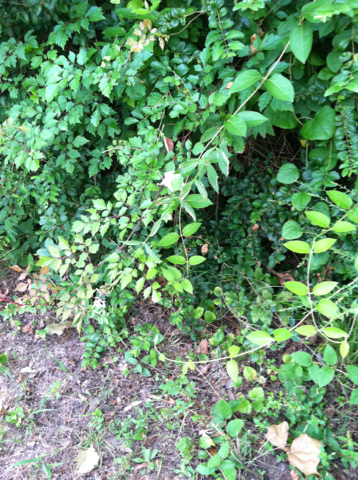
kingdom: Plantae
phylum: Tracheophyta
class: Magnoliopsida
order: Lamiales
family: Verbenaceae
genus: Verbena
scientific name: Verbena brasiliensis
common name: Brazilian vervain
